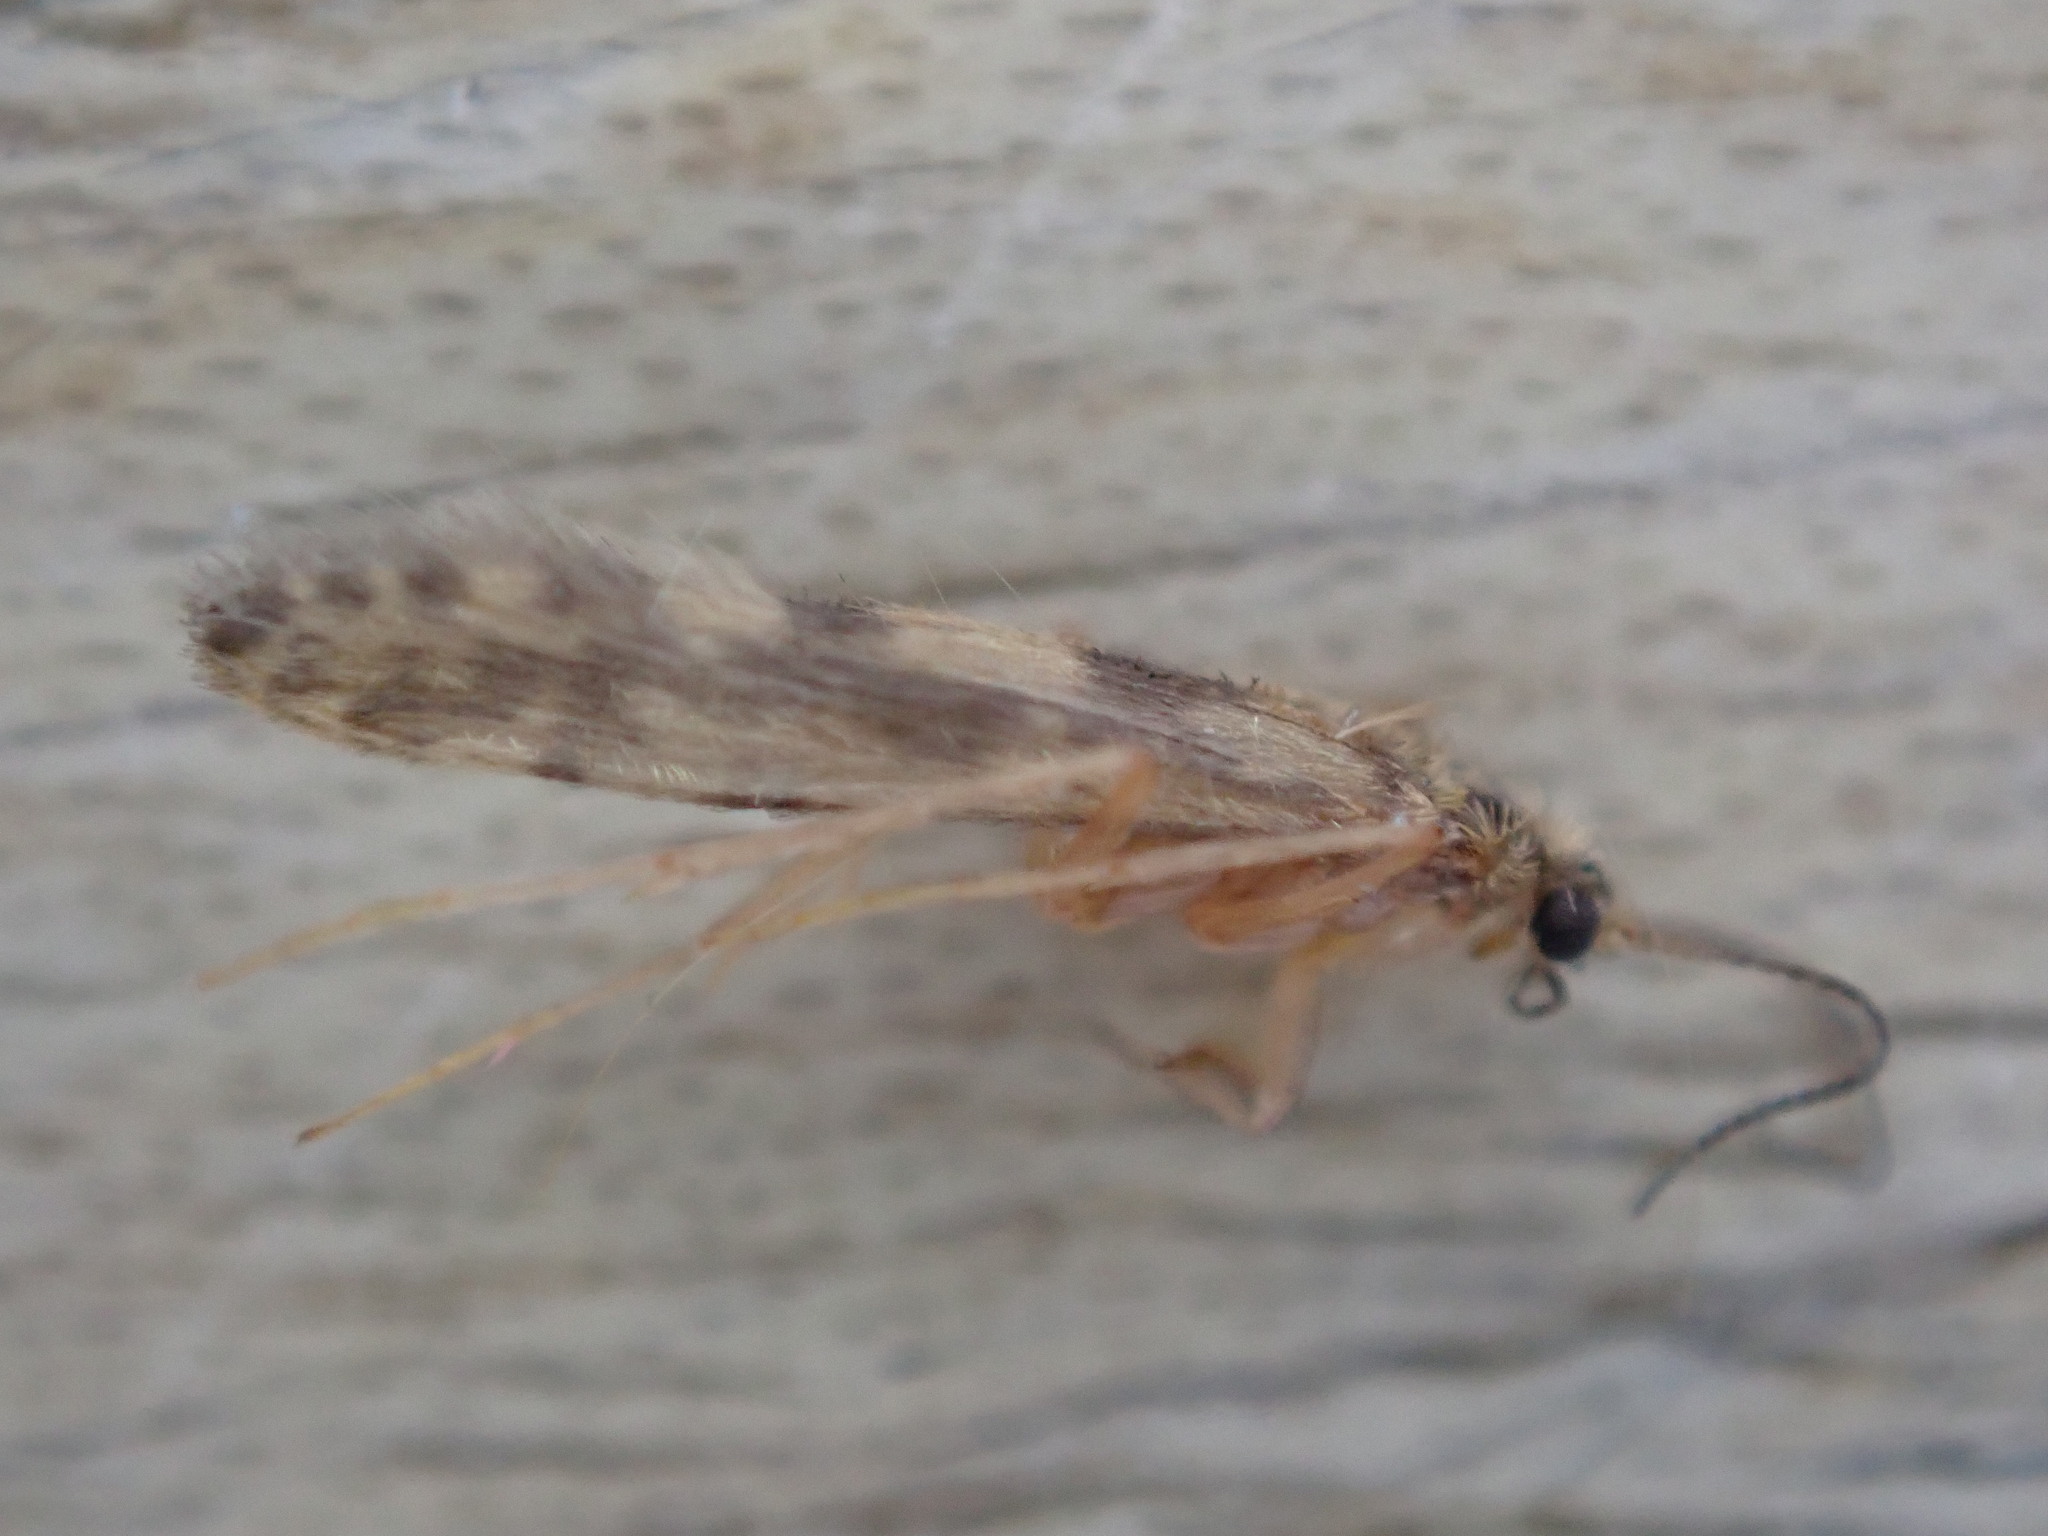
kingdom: Animalia
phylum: Arthropoda
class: Insecta
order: Trichoptera
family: Hydroptilidae
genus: Agraylea
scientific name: Agraylea multipunctata
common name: Salt and pepper microcaddisfly
